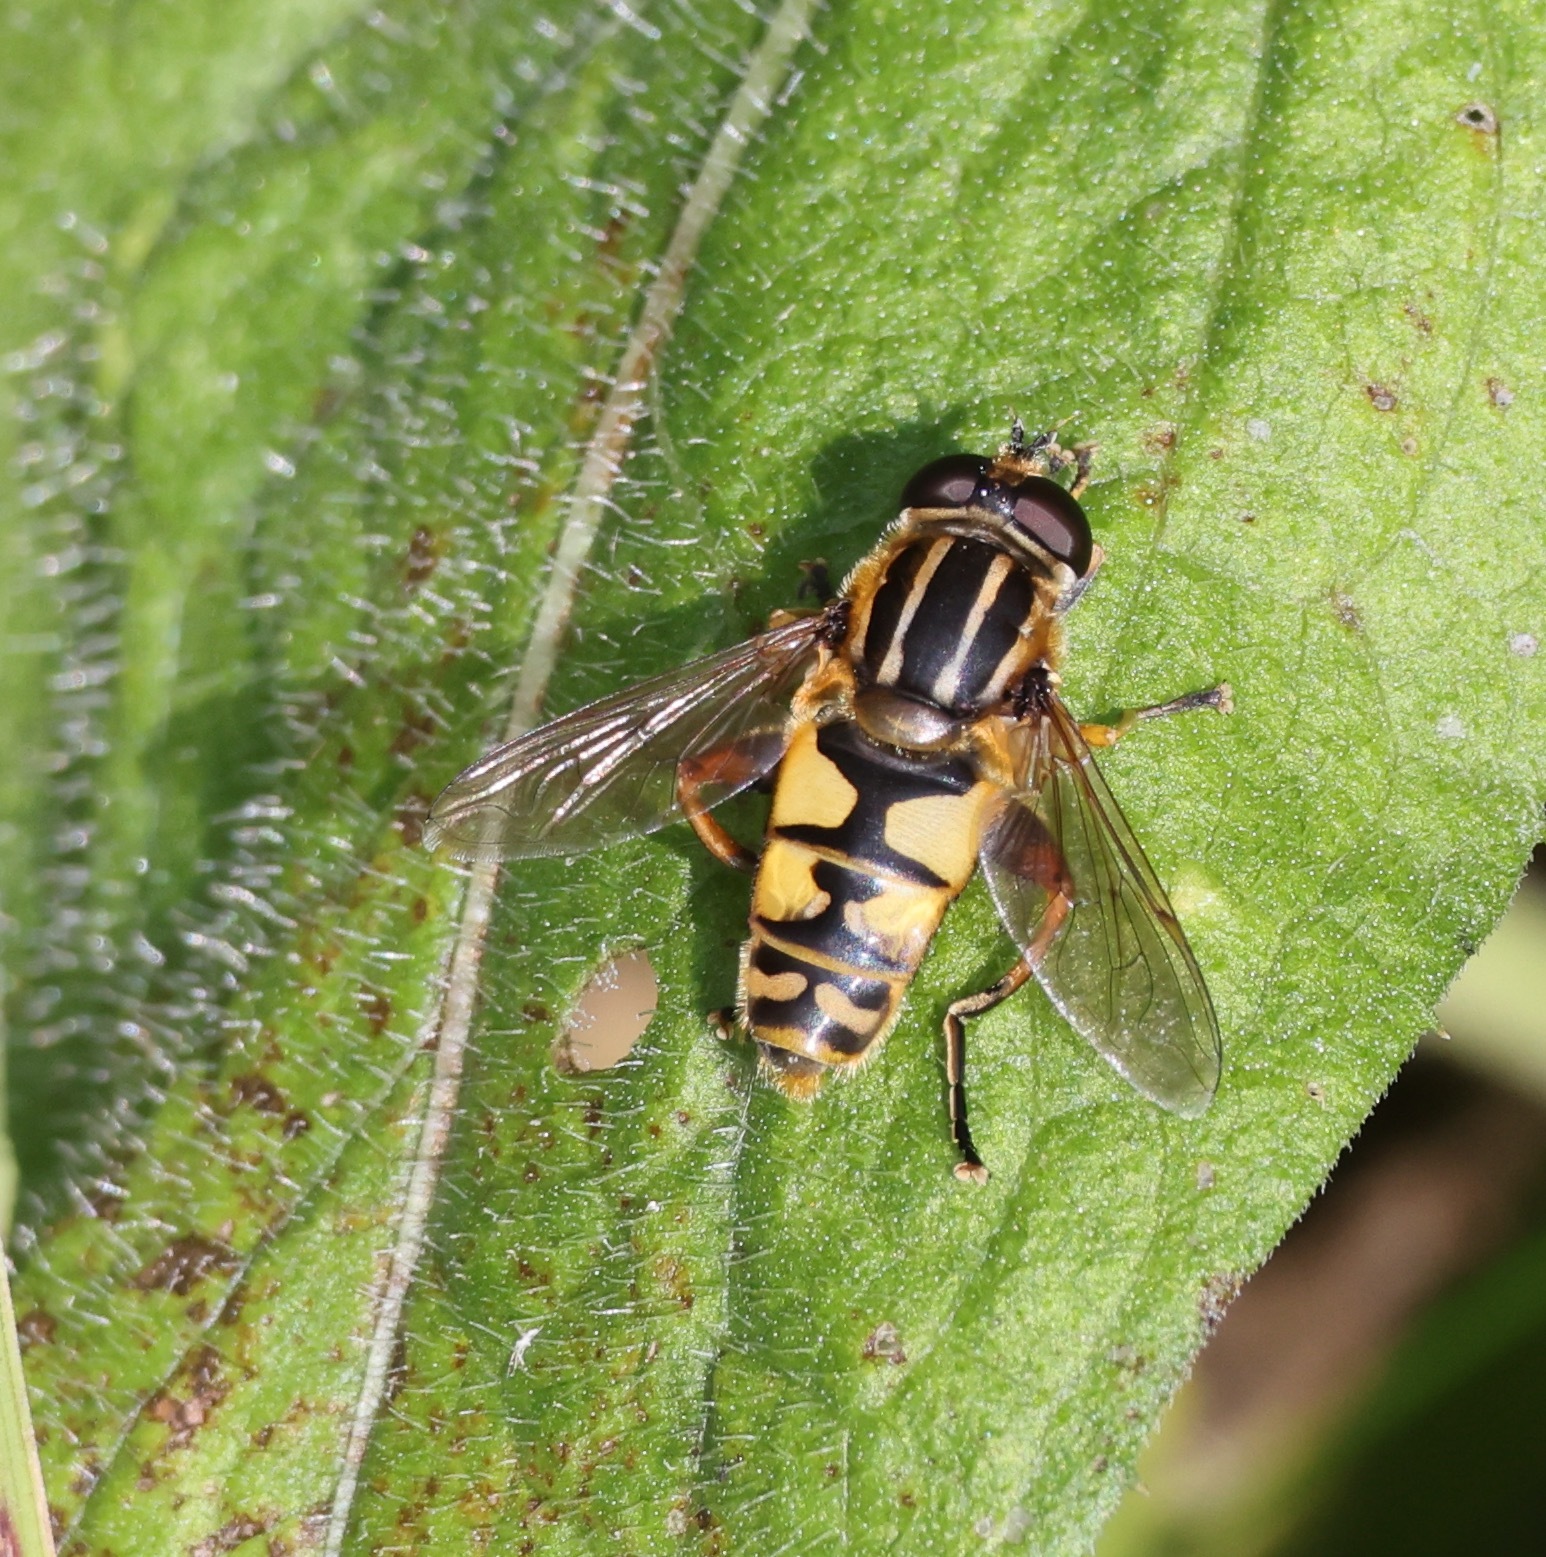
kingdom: Animalia
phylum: Arthropoda
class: Insecta
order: Diptera
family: Syrphidae
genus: Helophilus
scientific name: Helophilus pendulus
